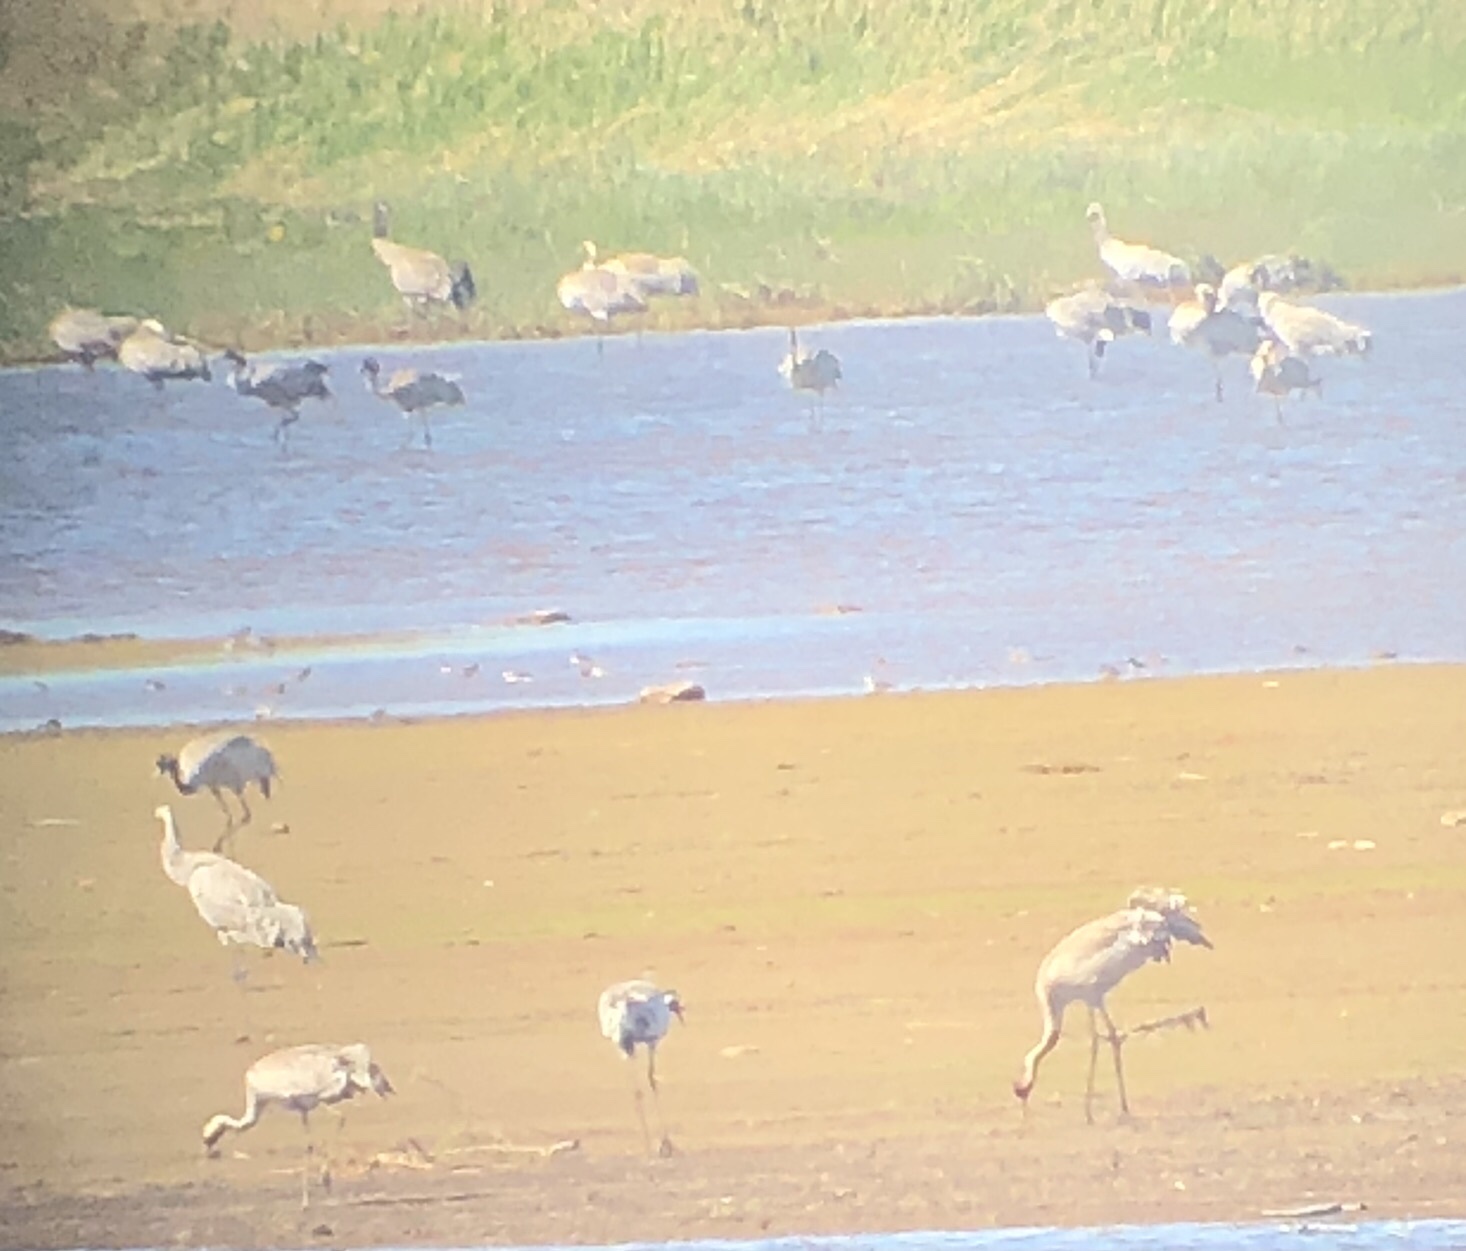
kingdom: Animalia
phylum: Chordata
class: Aves
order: Gruiformes
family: Gruidae
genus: Grus
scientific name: Grus grus
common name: Common crane
